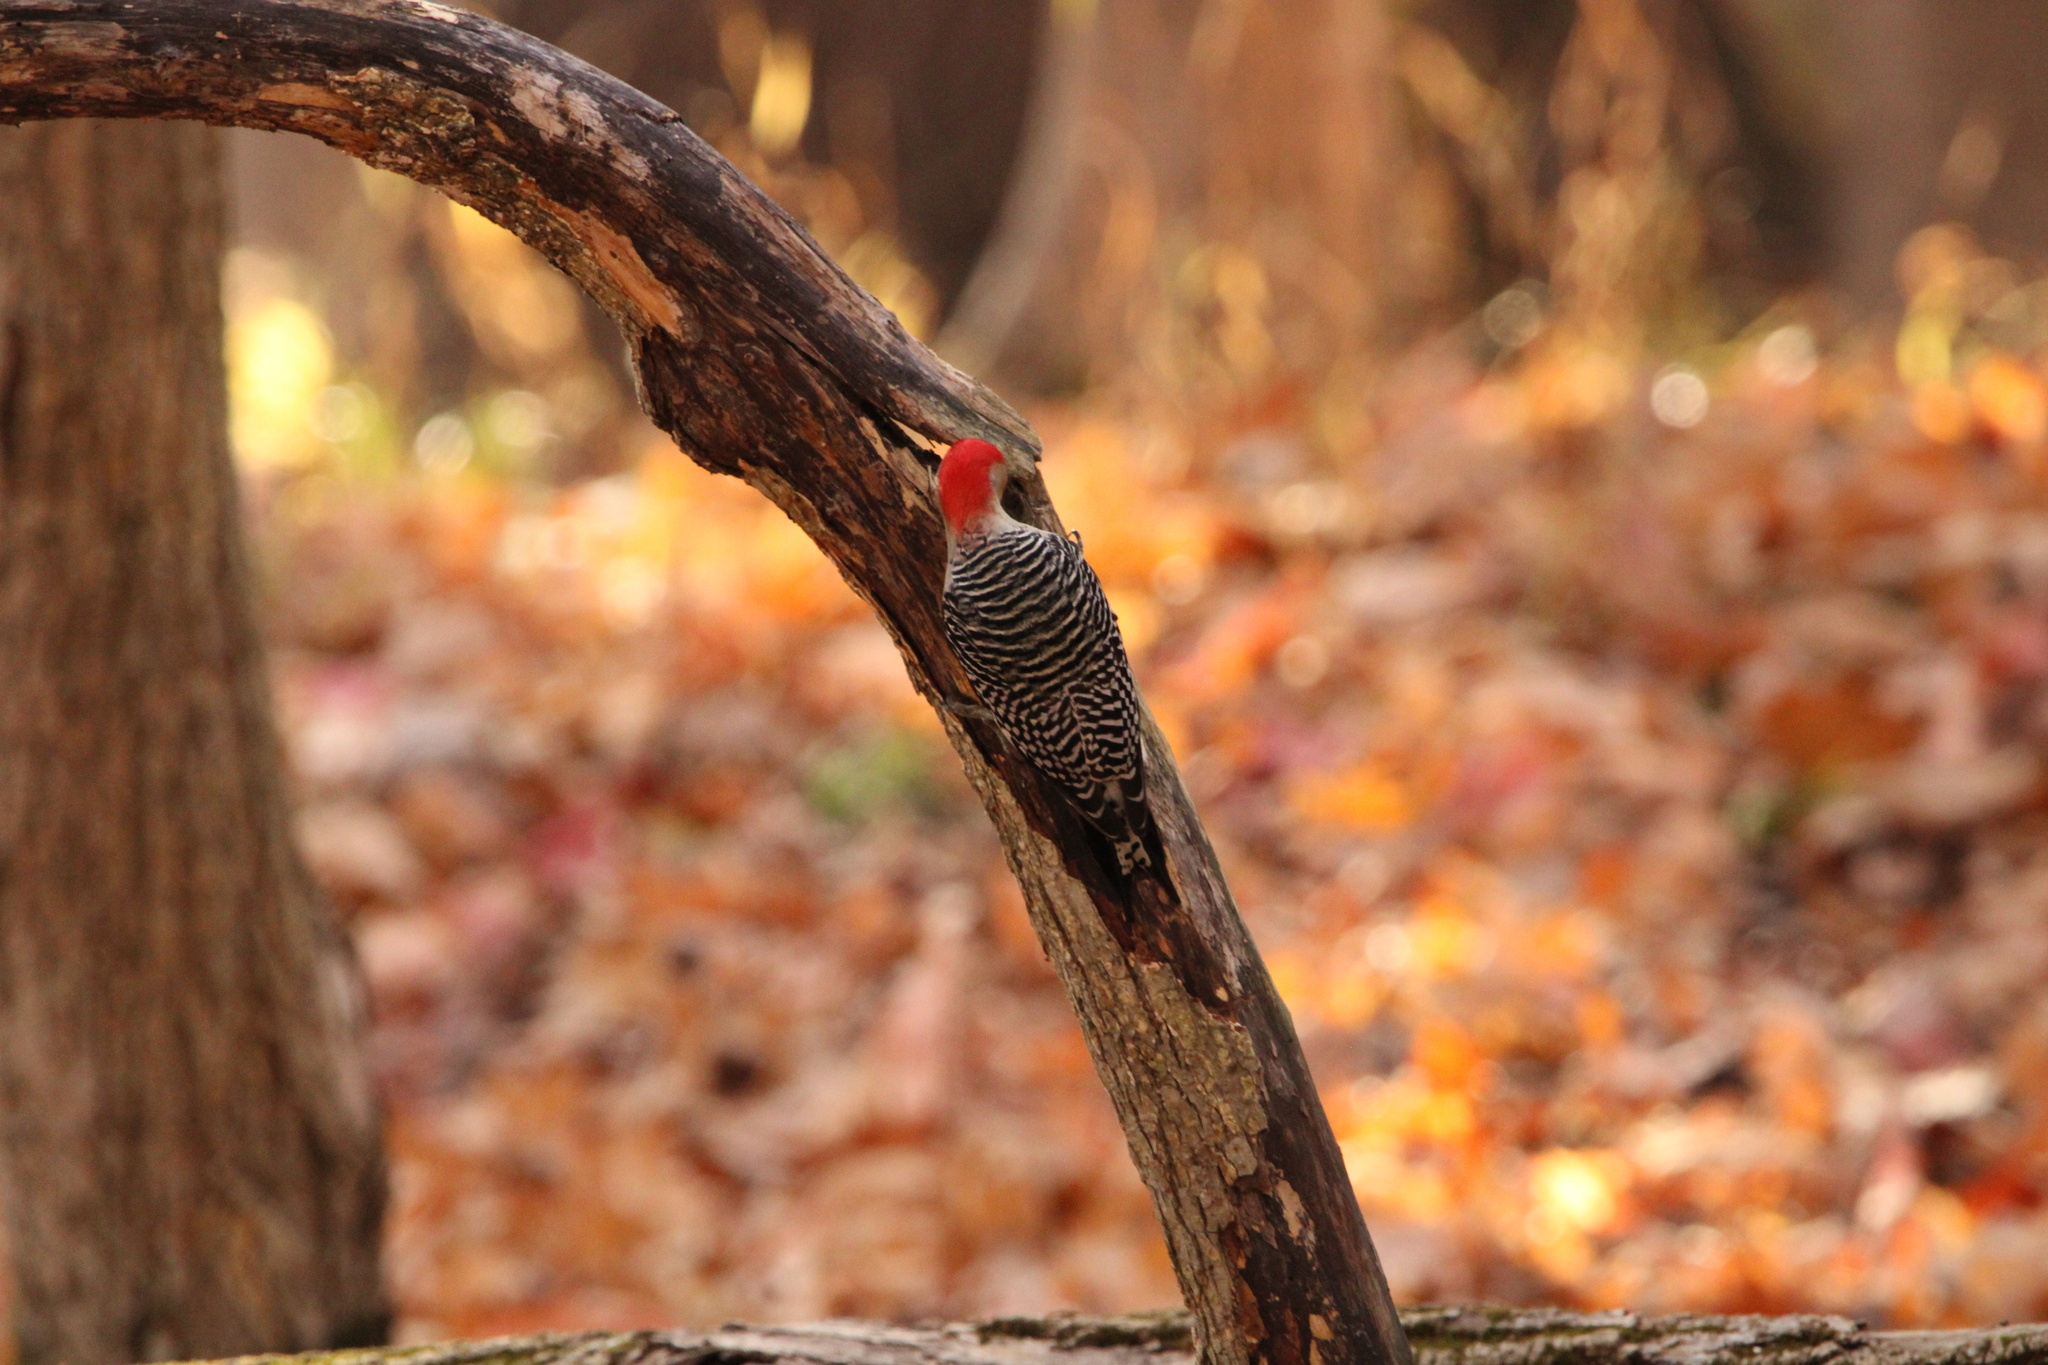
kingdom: Animalia
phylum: Chordata
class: Aves
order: Piciformes
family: Picidae
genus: Melanerpes
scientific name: Melanerpes carolinus
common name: Red-bellied woodpecker
